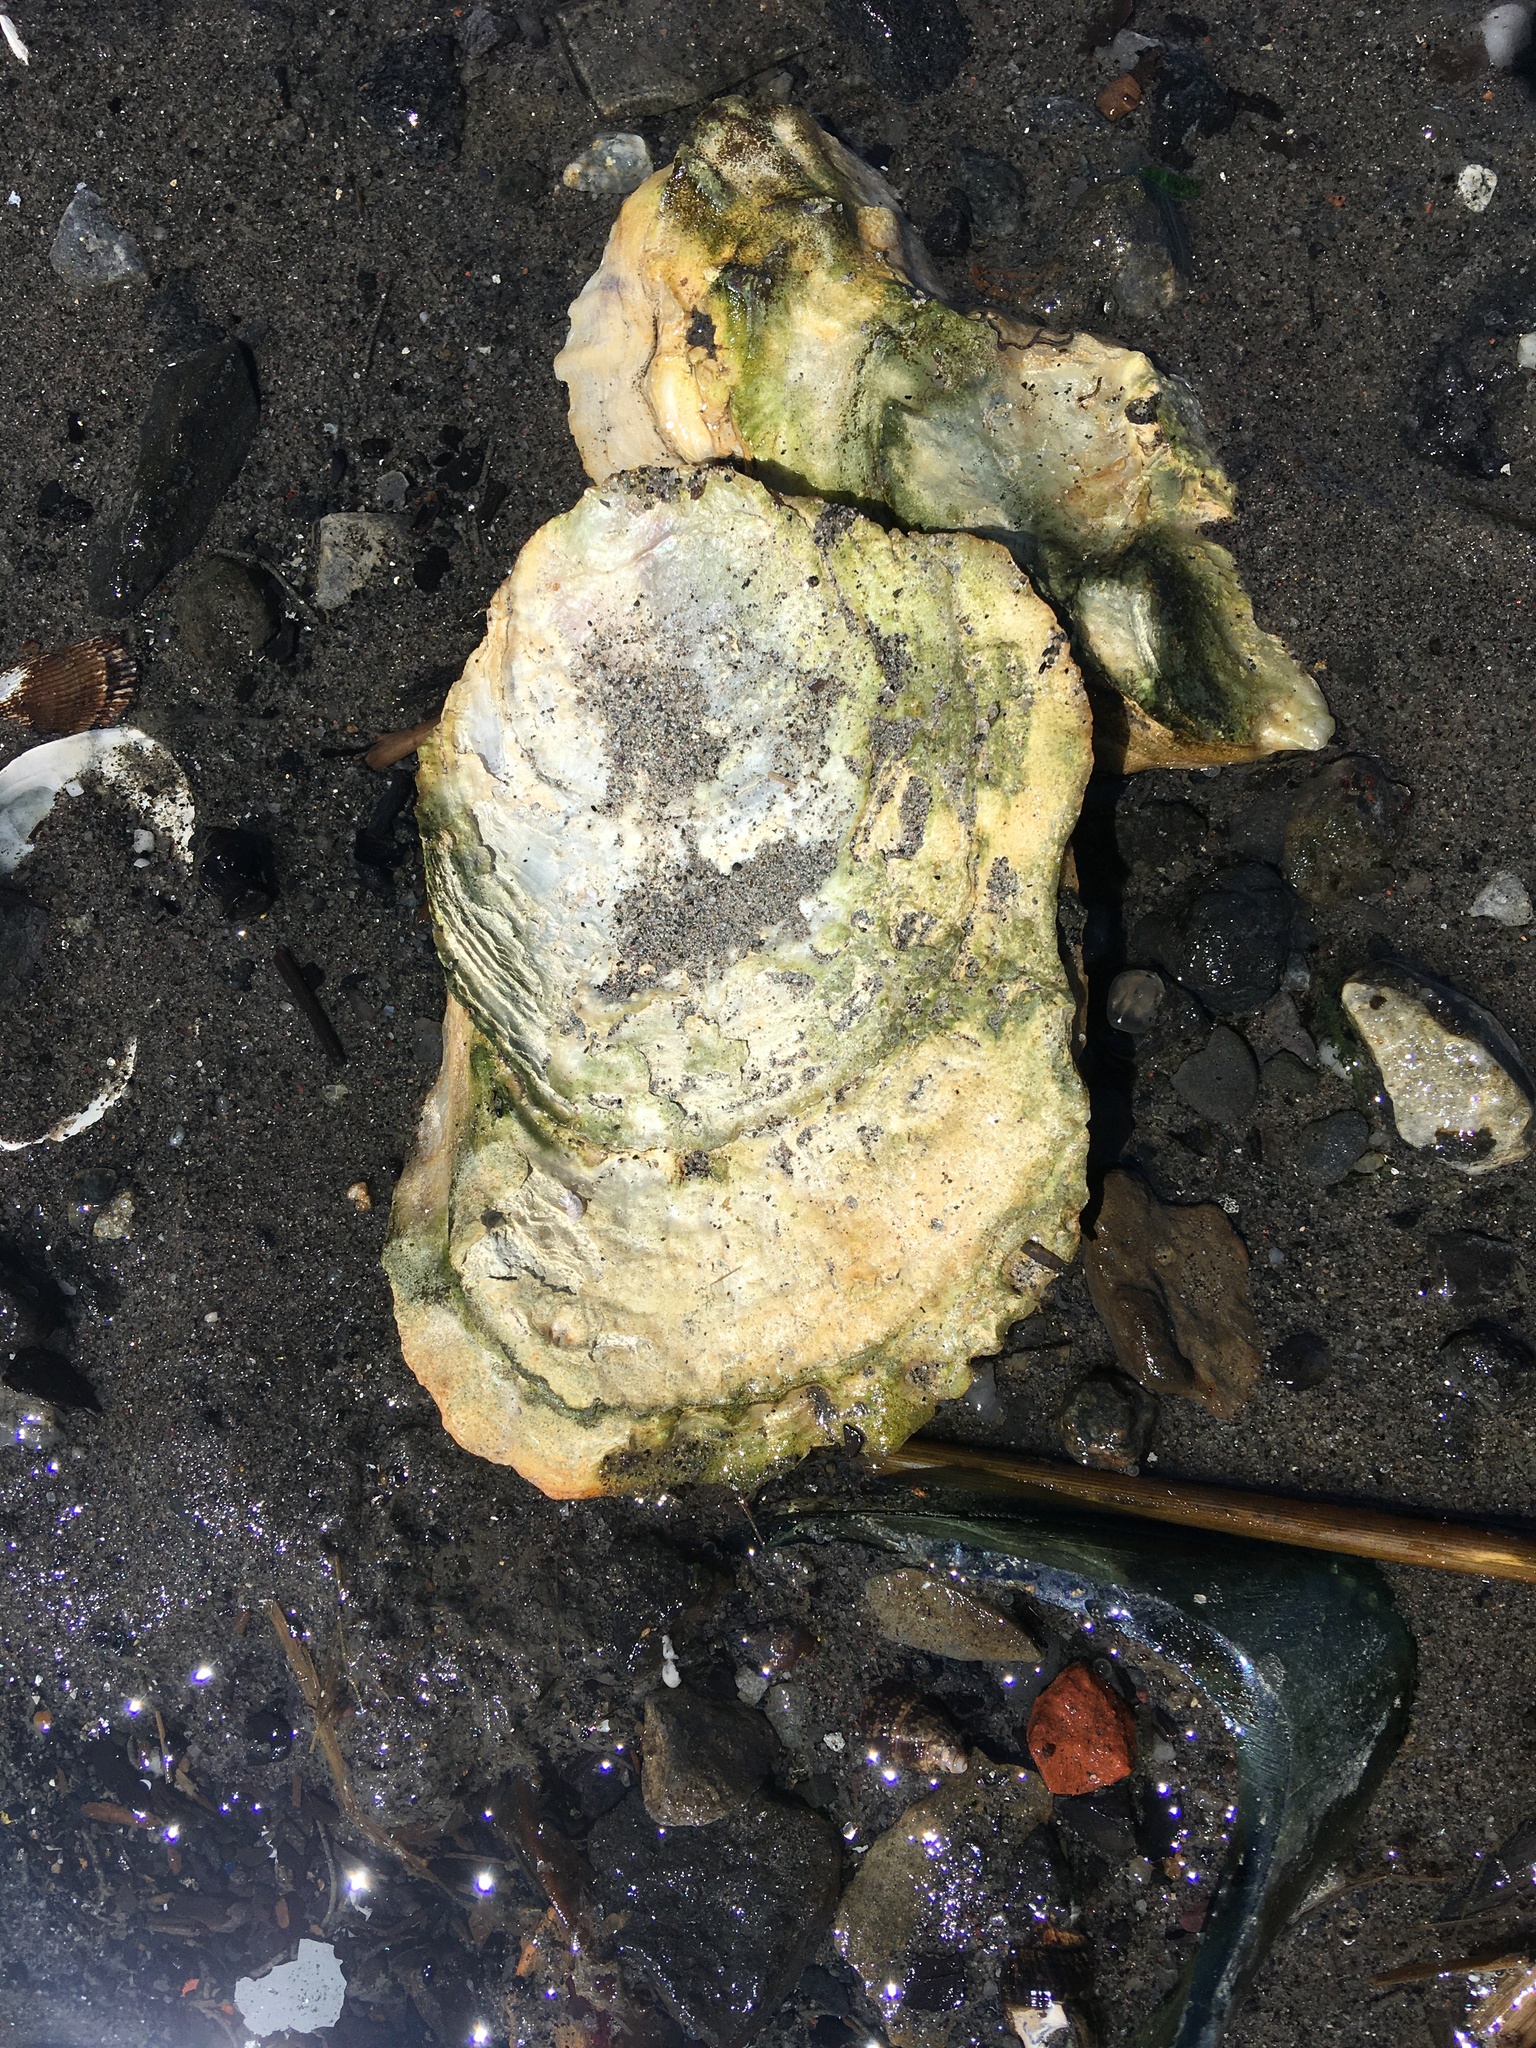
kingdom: Animalia
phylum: Mollusca
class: Bivalvia
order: Ostreida
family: Ostreidae
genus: Crassostrea
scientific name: Crassostrea virginica
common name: American oyster
